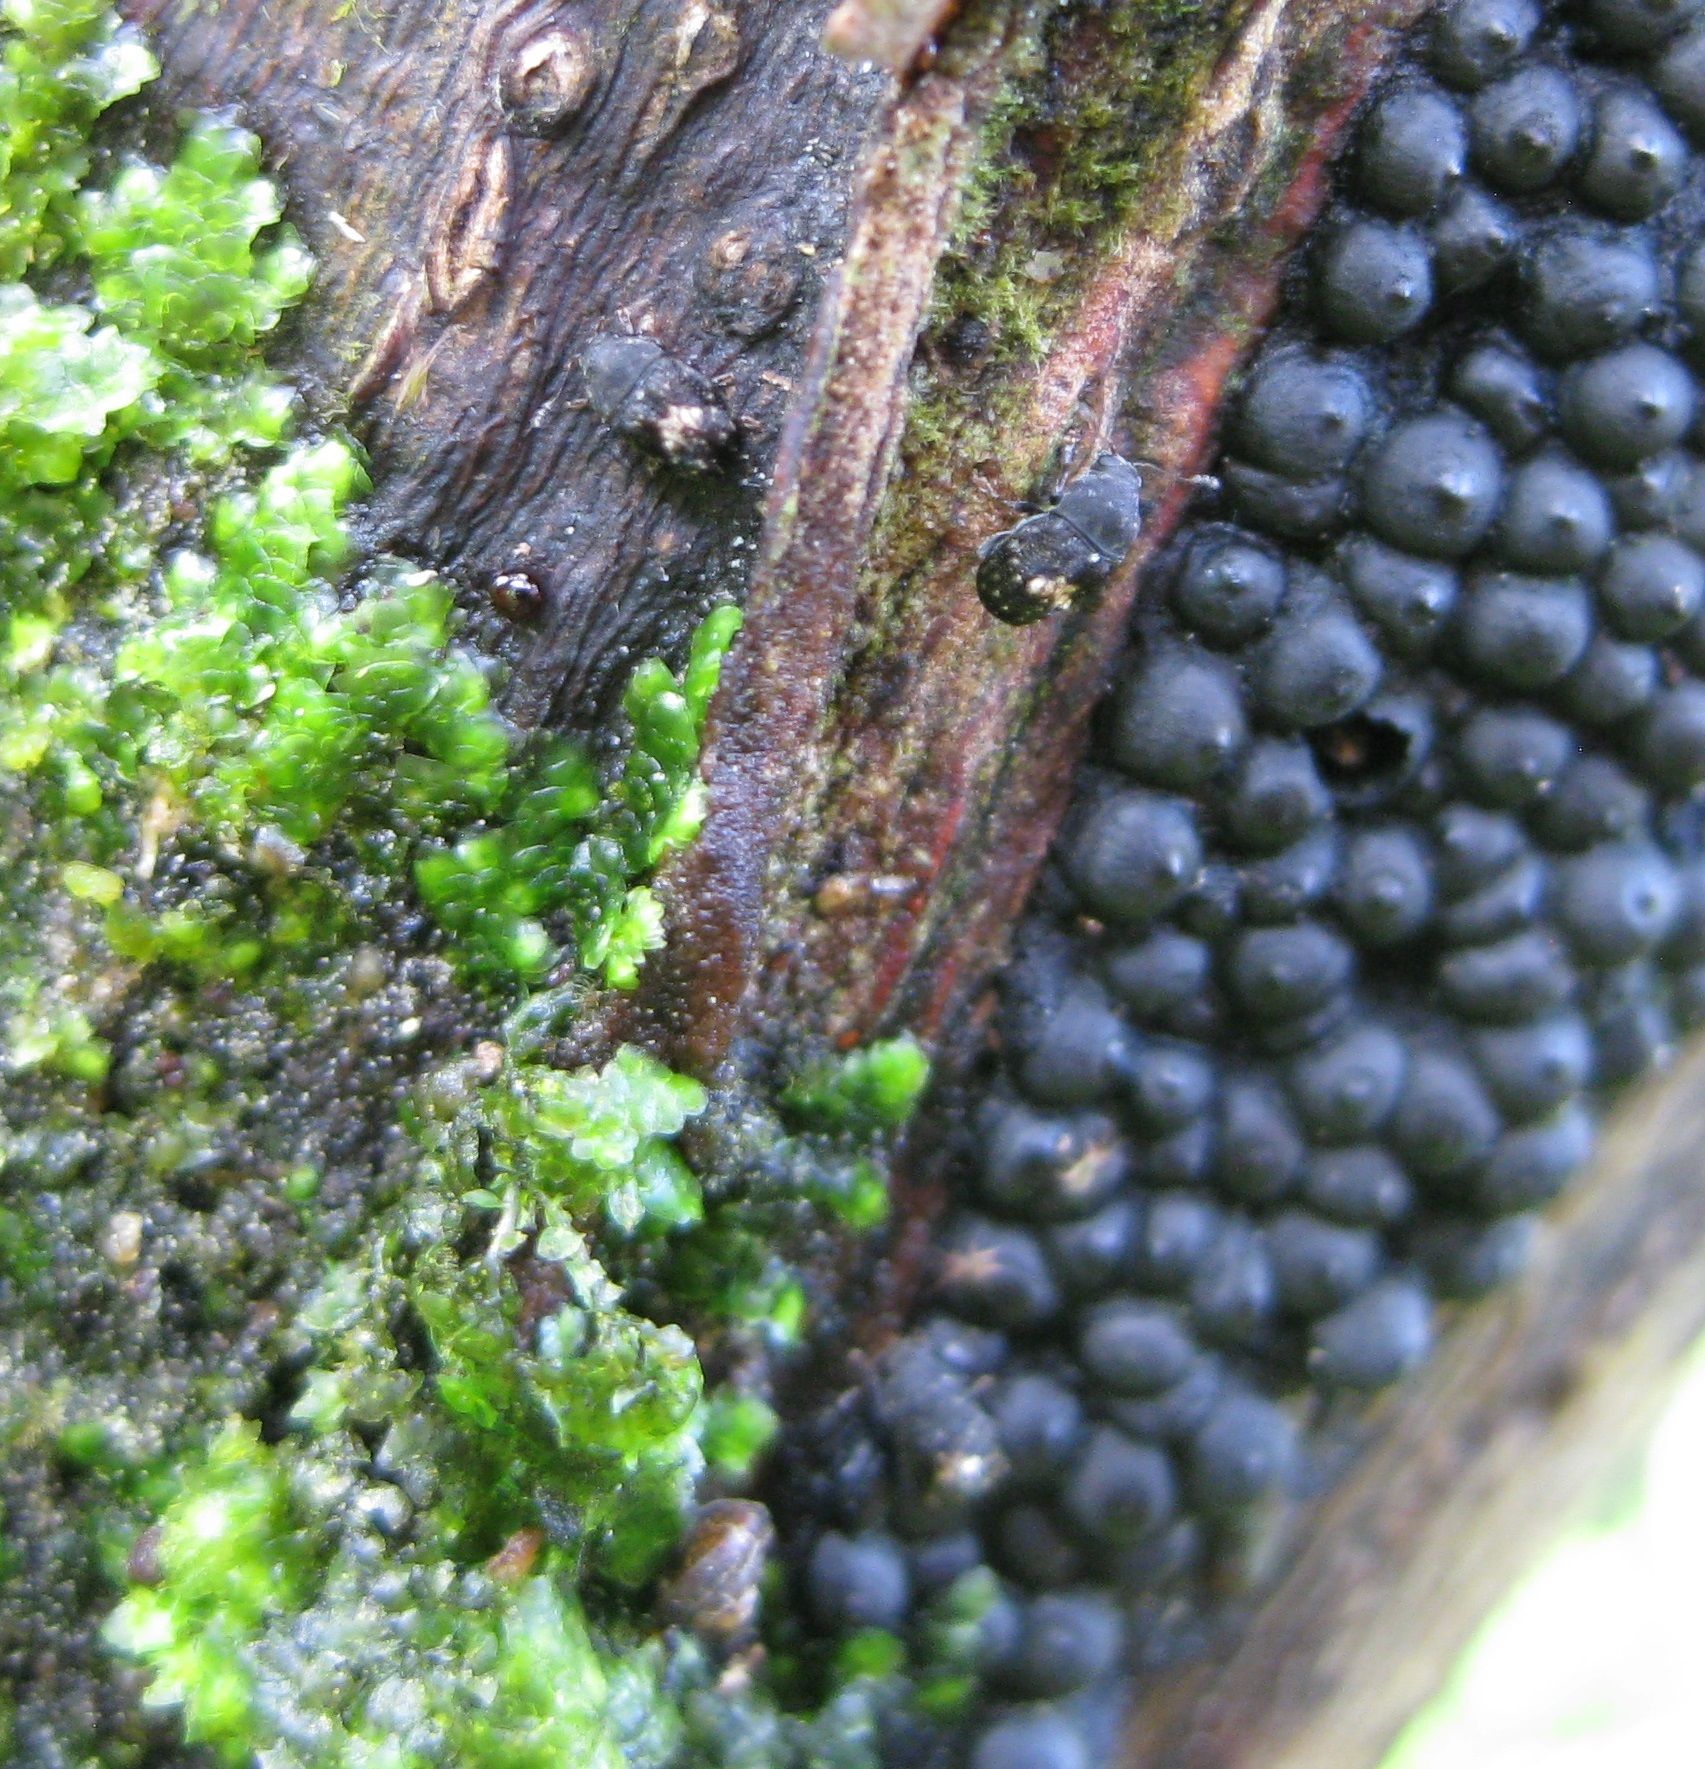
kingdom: Animalia
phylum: Arthropoda
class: Insecta
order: Coleoptera
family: Anthribidae
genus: Notochoragus
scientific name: Notochoragus
